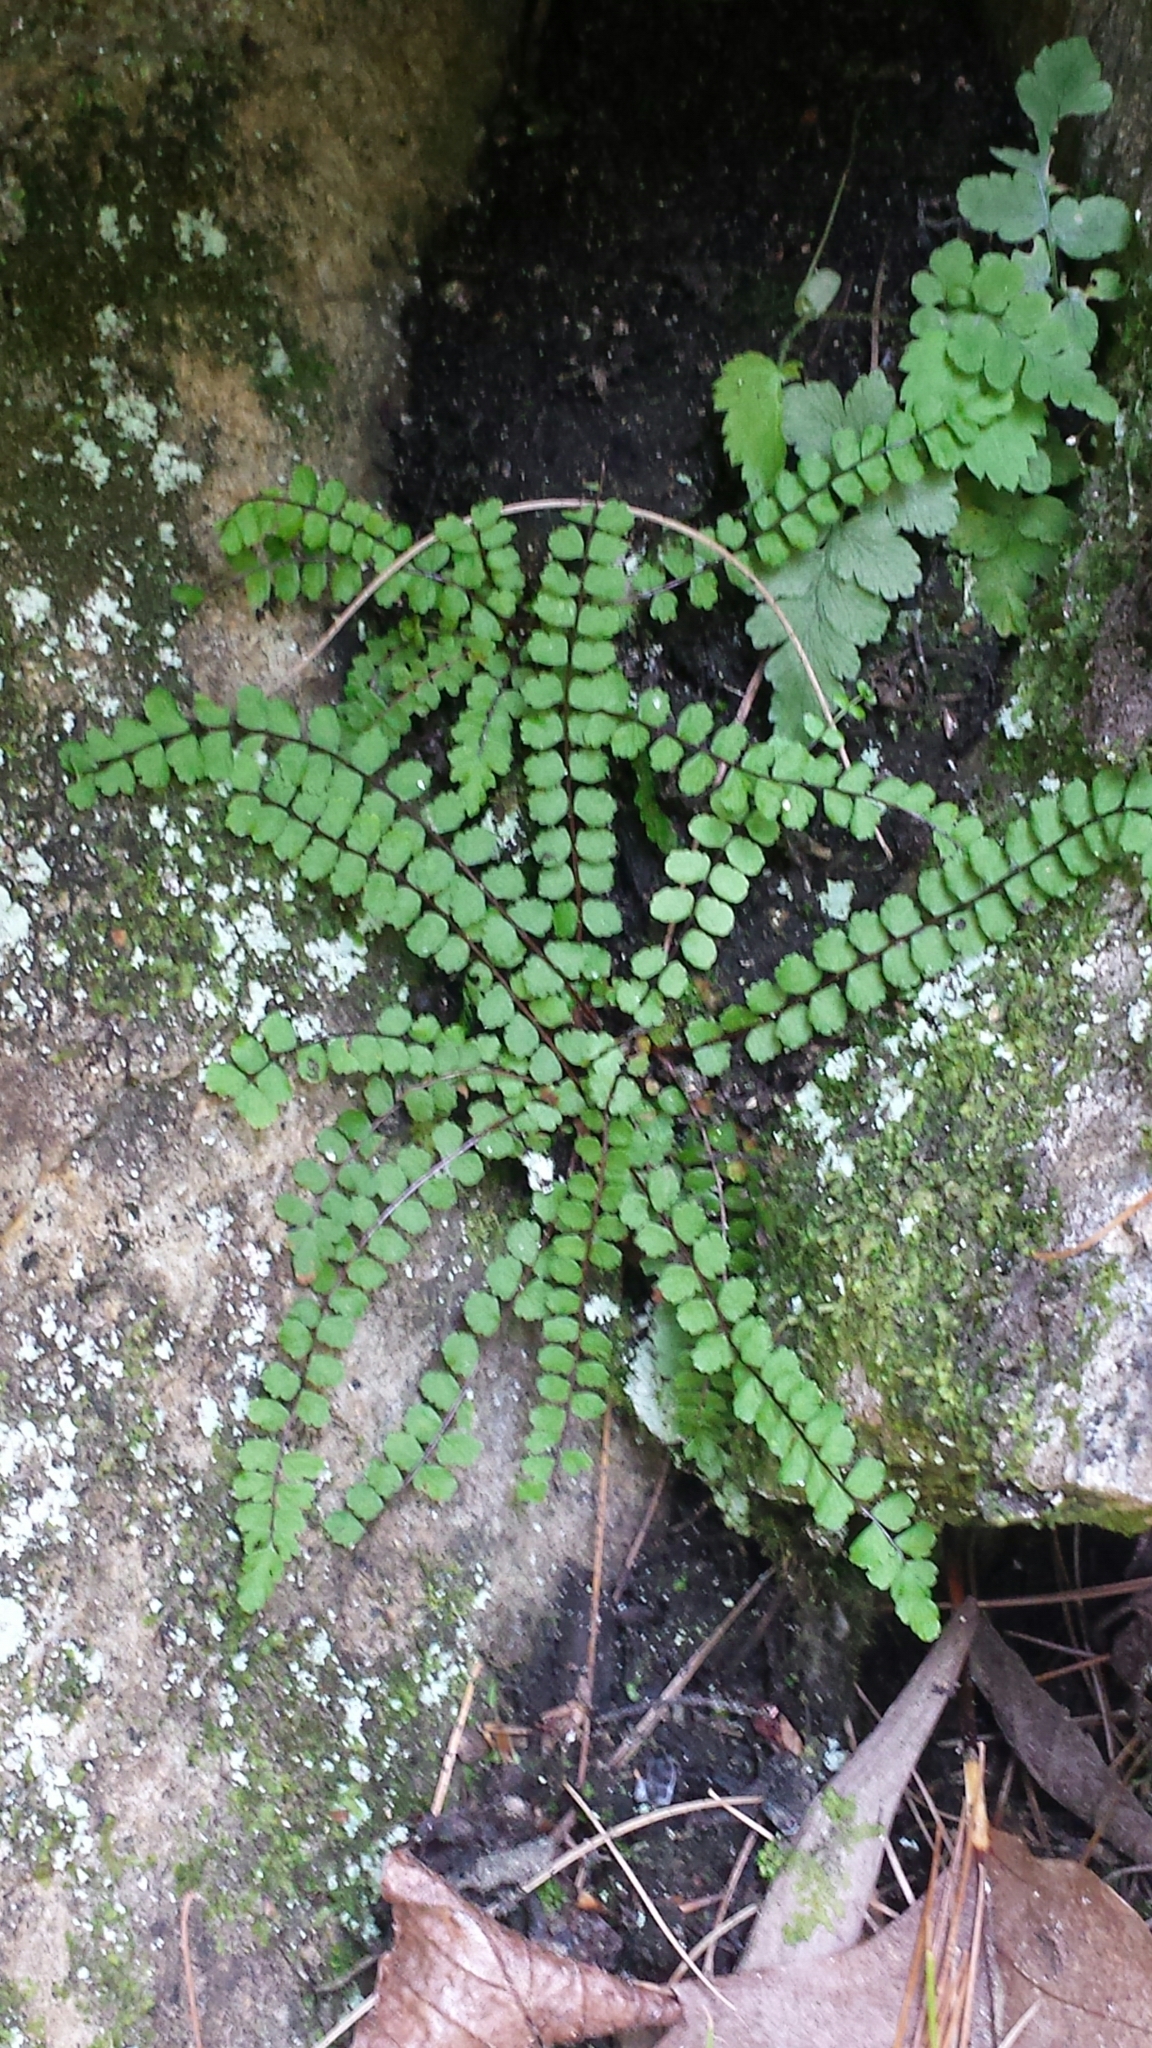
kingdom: Plantae
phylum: Tracheophyta
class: Polypodiopsida
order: Polypodiales
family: Aspleniaceae
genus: Asplenium
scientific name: Asplenium trichomanes
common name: Maidenhair spleenwort
